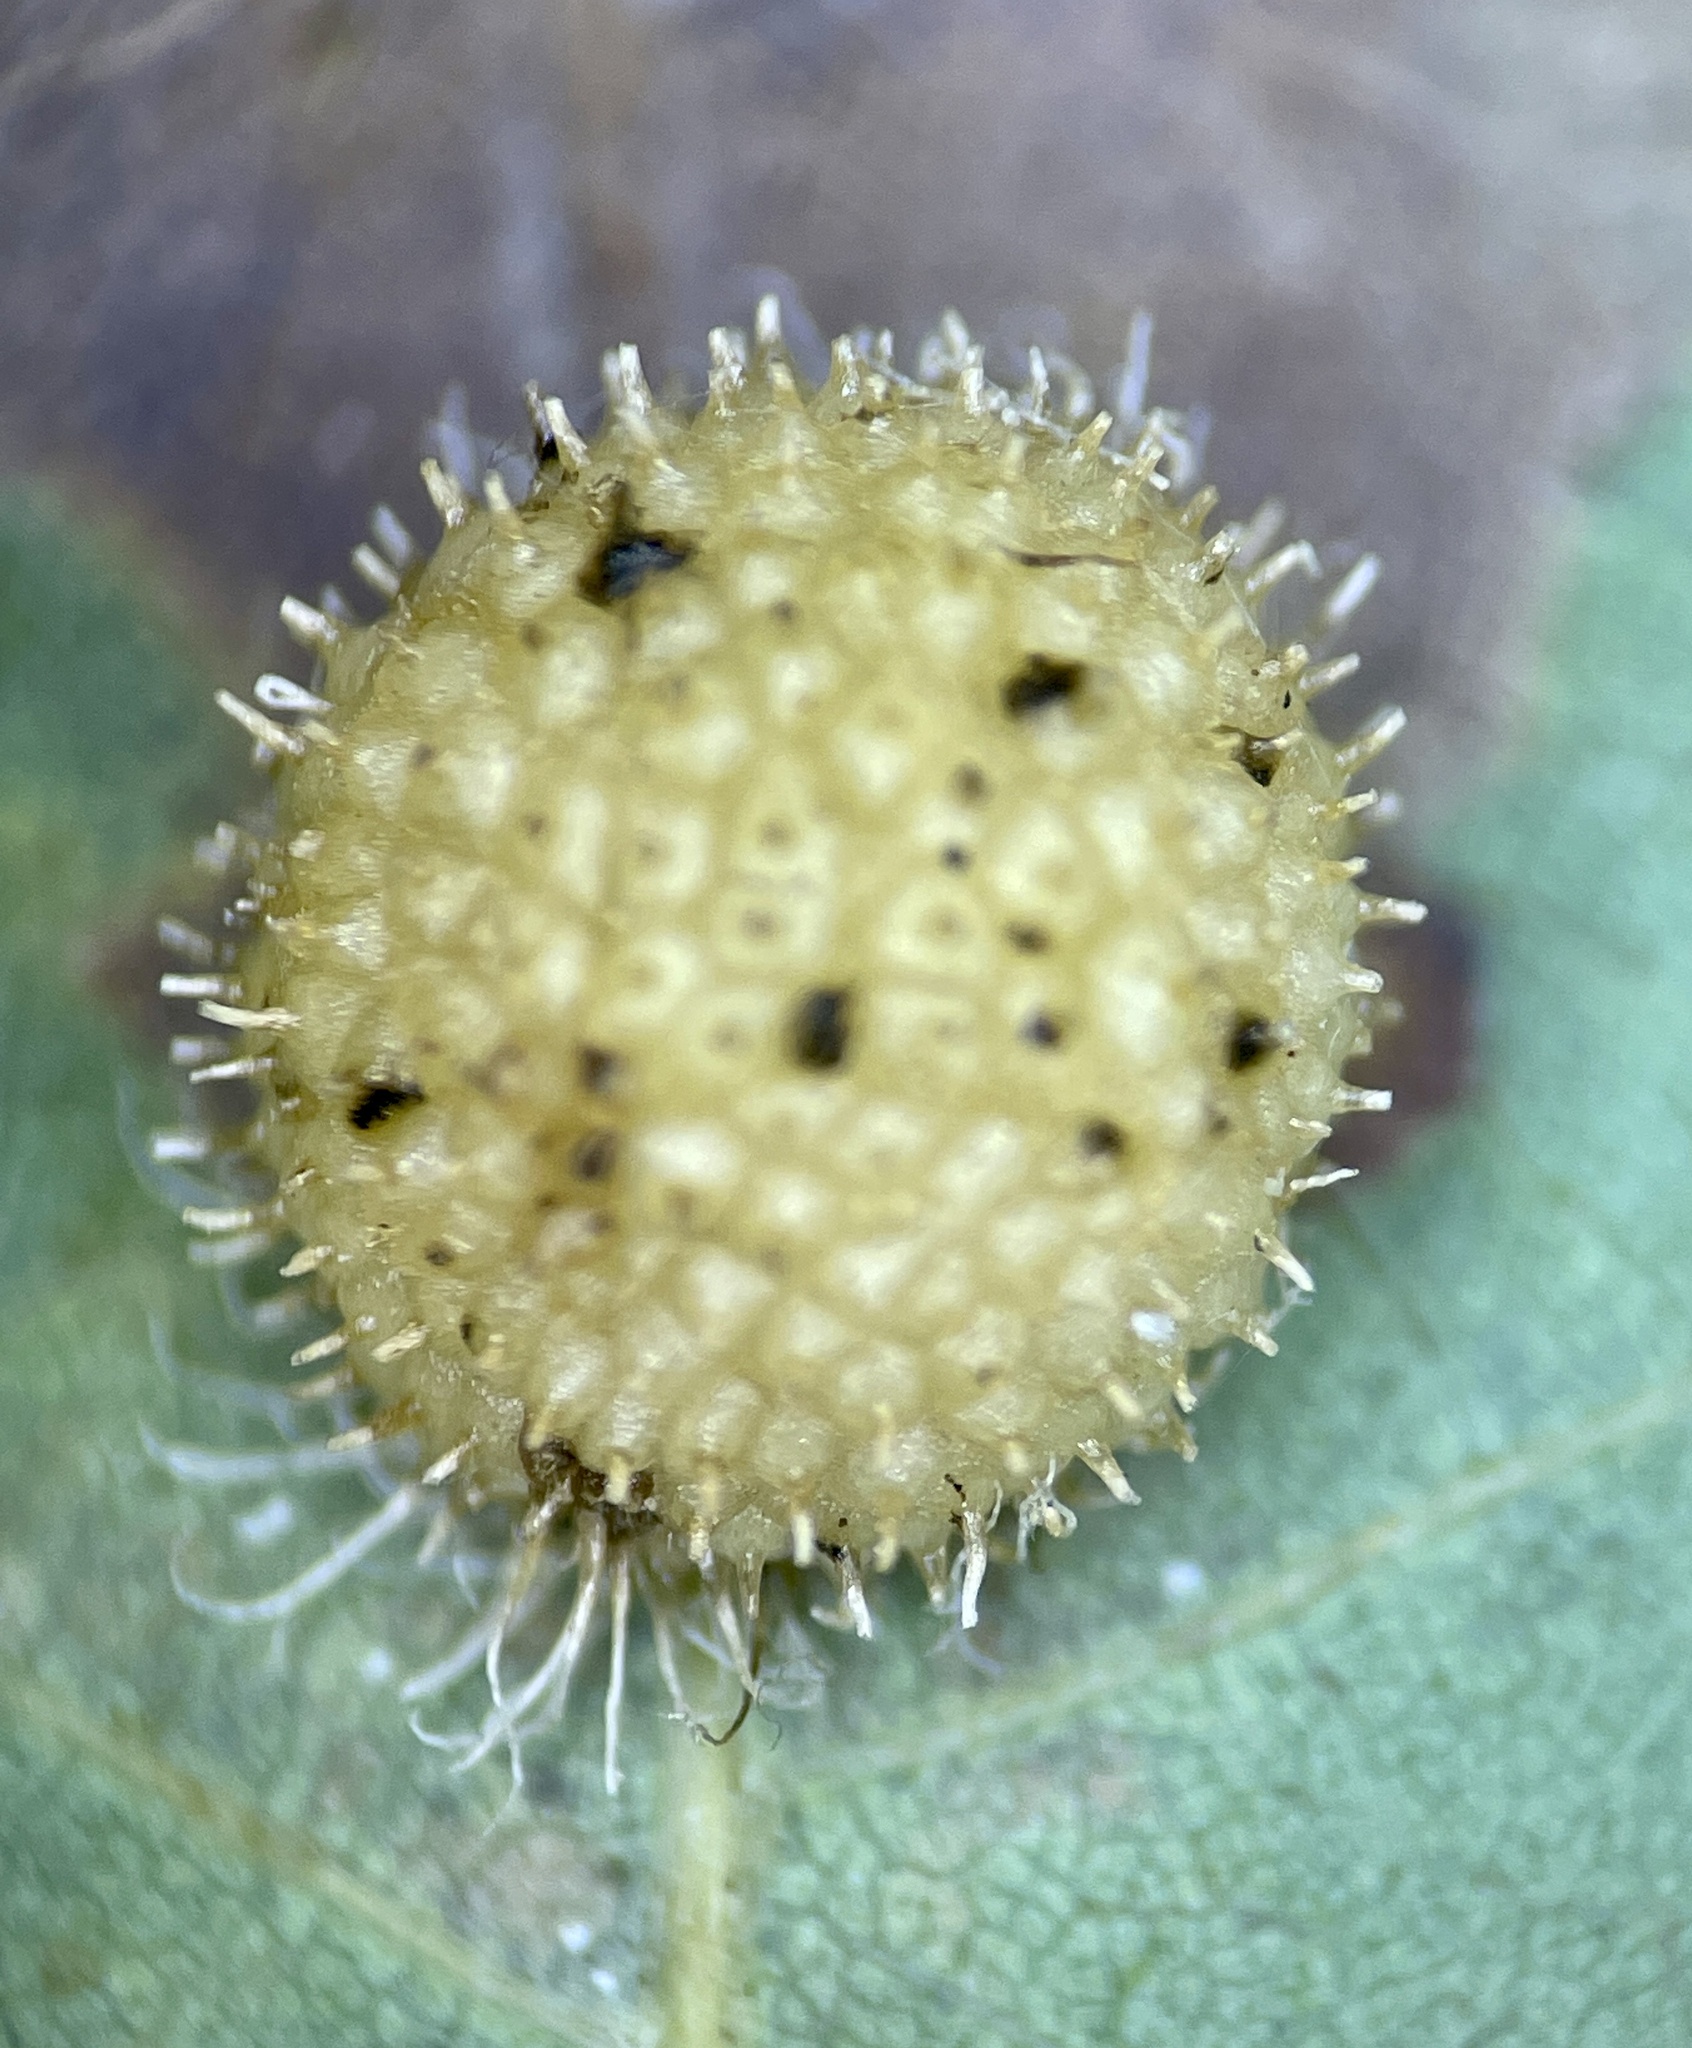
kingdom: Animalia
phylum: Arthropoda
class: Insecta
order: Hymenoptera
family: Cynipidae
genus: Acraspis
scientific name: Acraspis erinacei
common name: Hedgehog gall wasp
